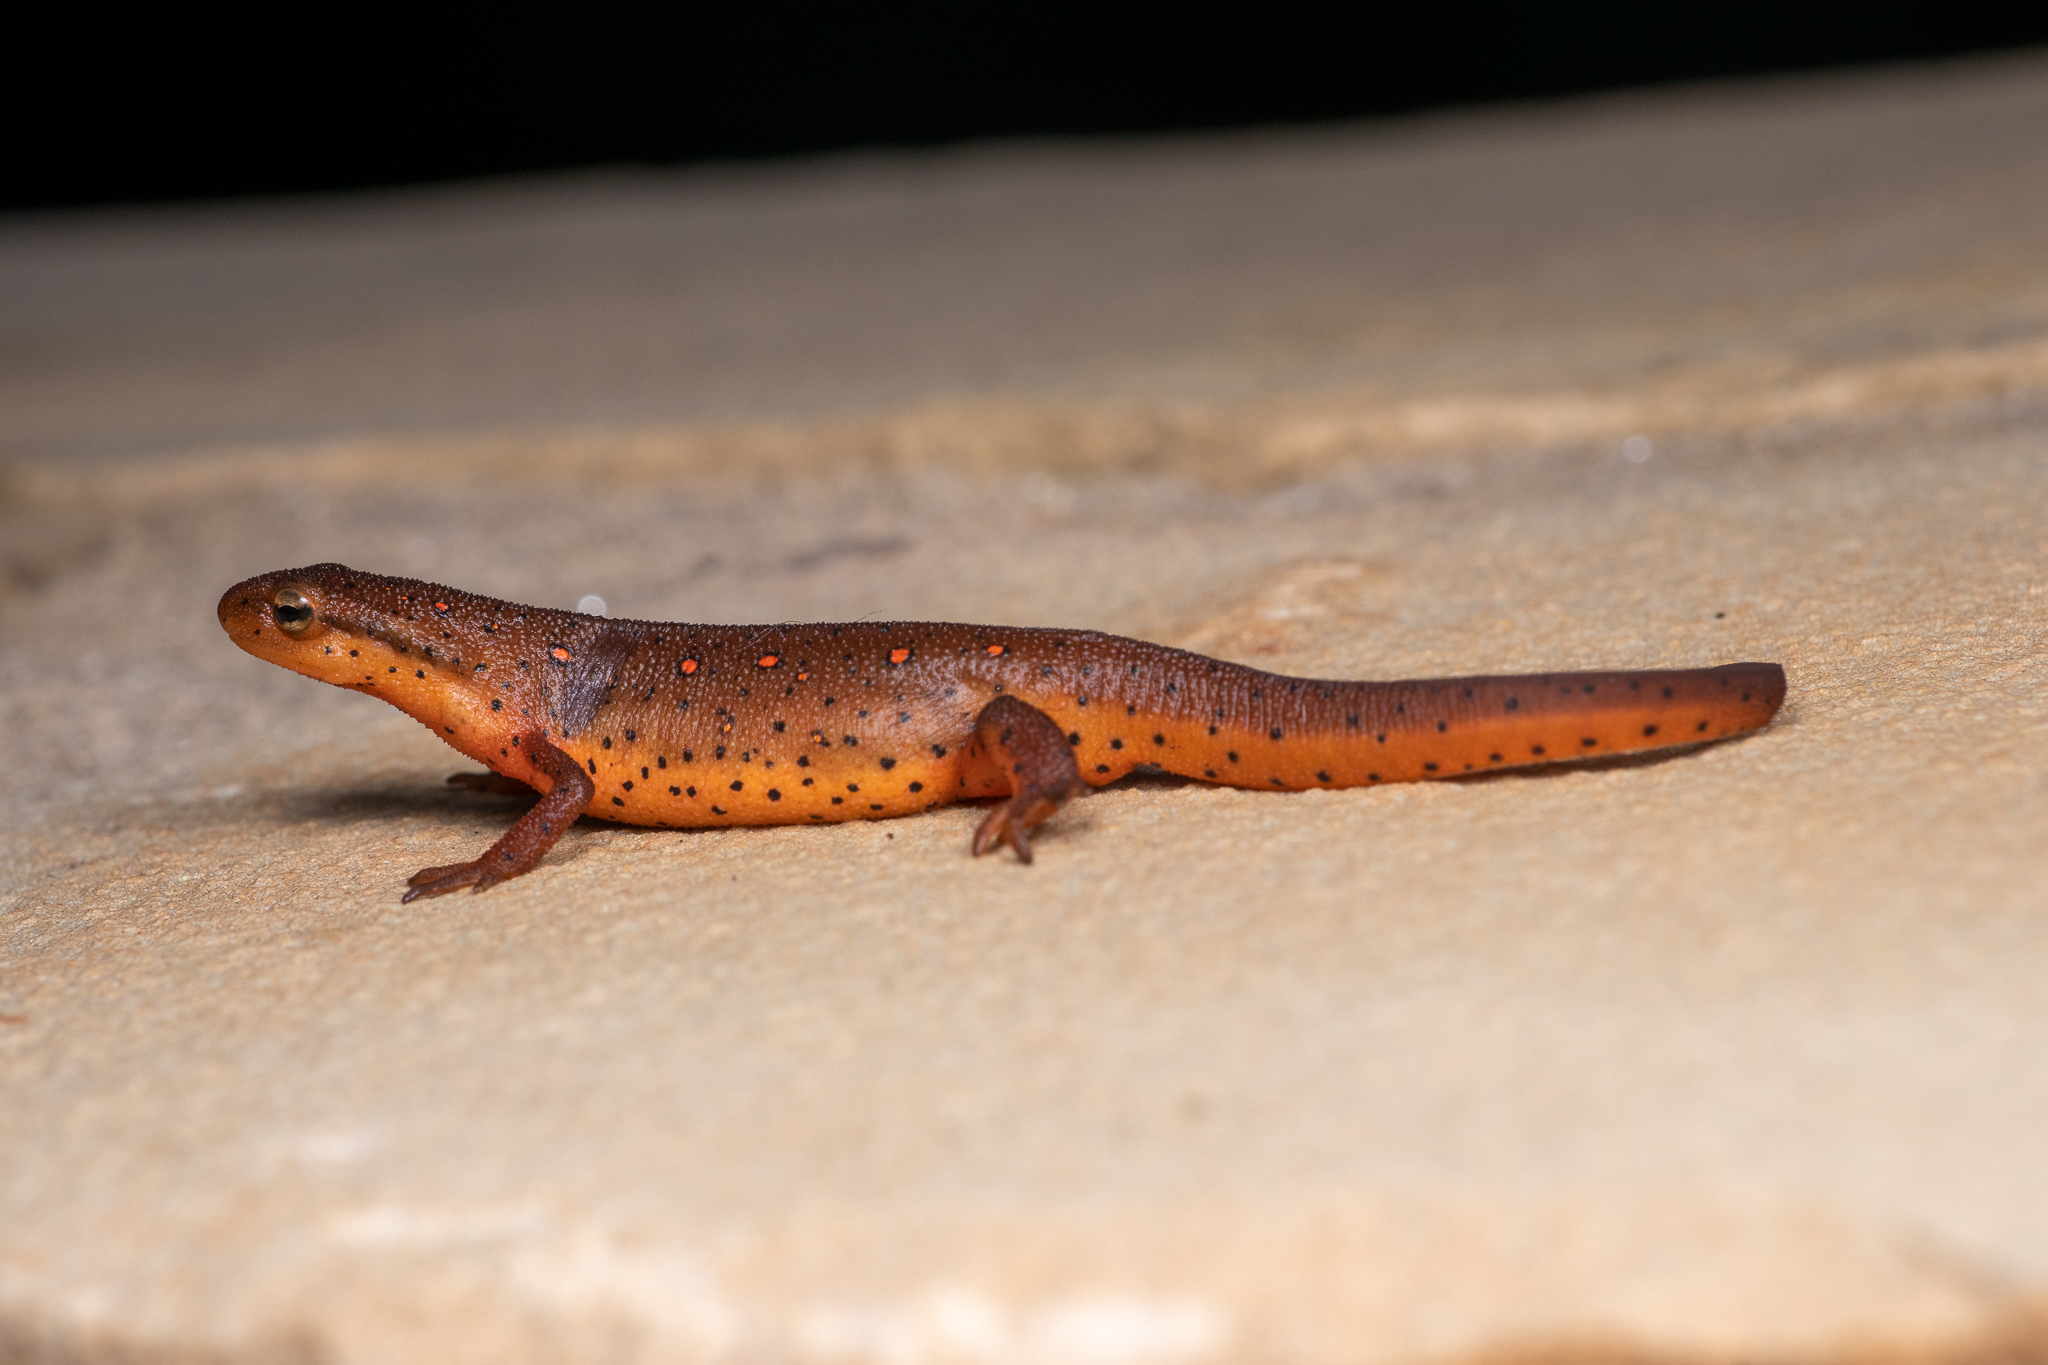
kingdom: Animalia
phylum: Chordata
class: Amphibia
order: Caudata
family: Salamandridae
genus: Notophthalmus
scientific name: Notophthalmus viridescens
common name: Eastern newt
